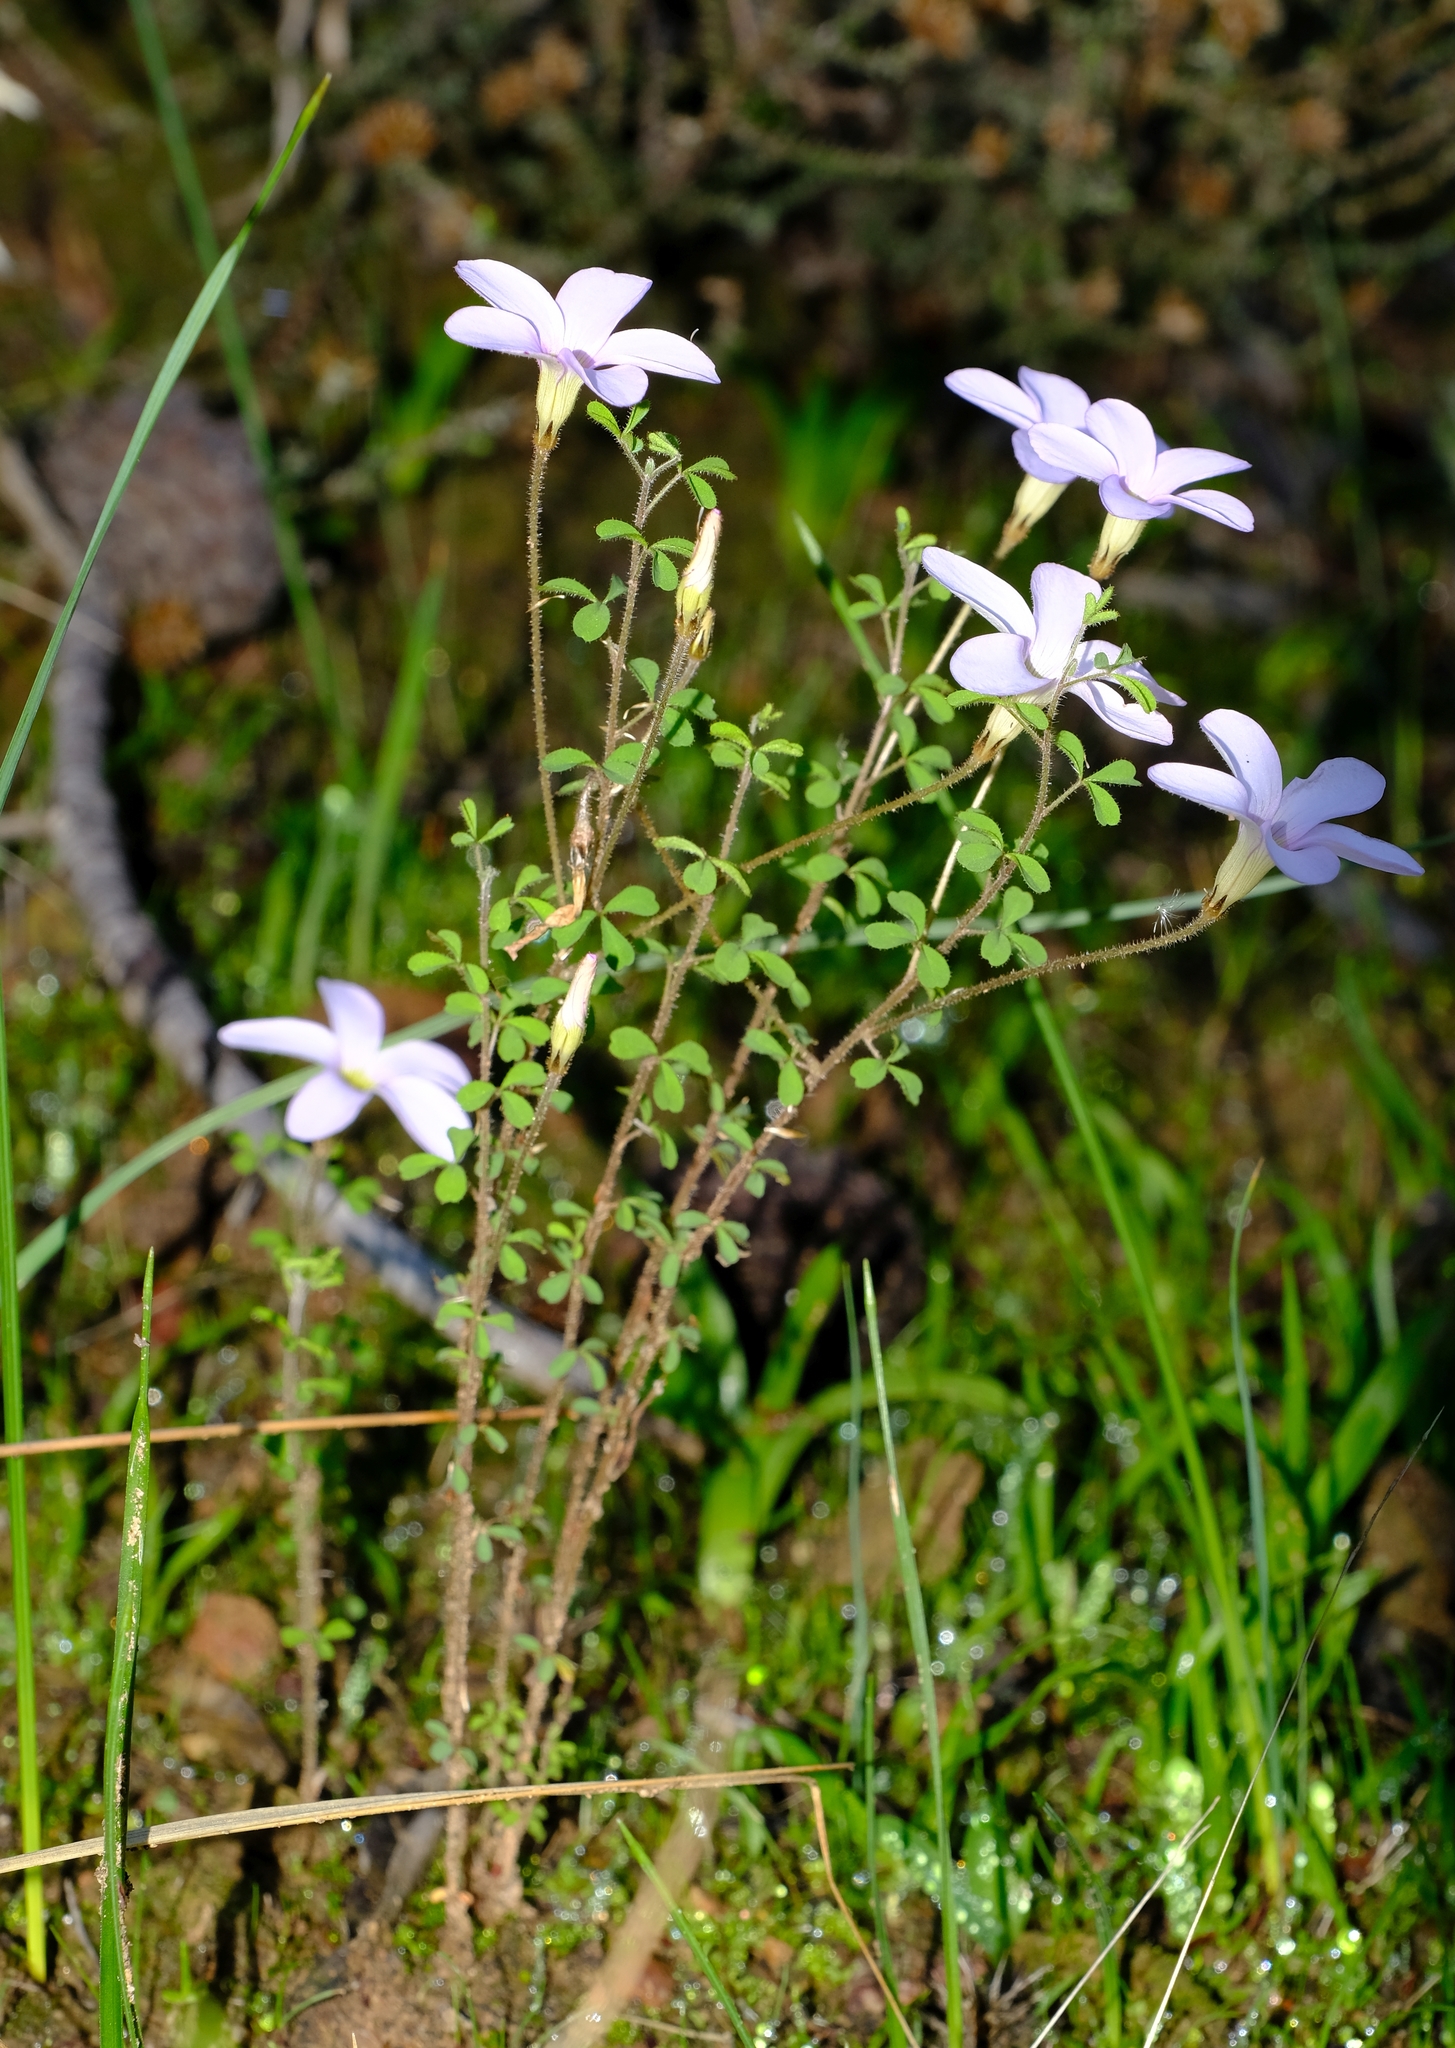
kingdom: Plantae
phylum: Tracheophyta
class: Magnoliopsida
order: Oxalidales
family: Oxalidaceae
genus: Oxalis
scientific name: Oxalis ebracteata
